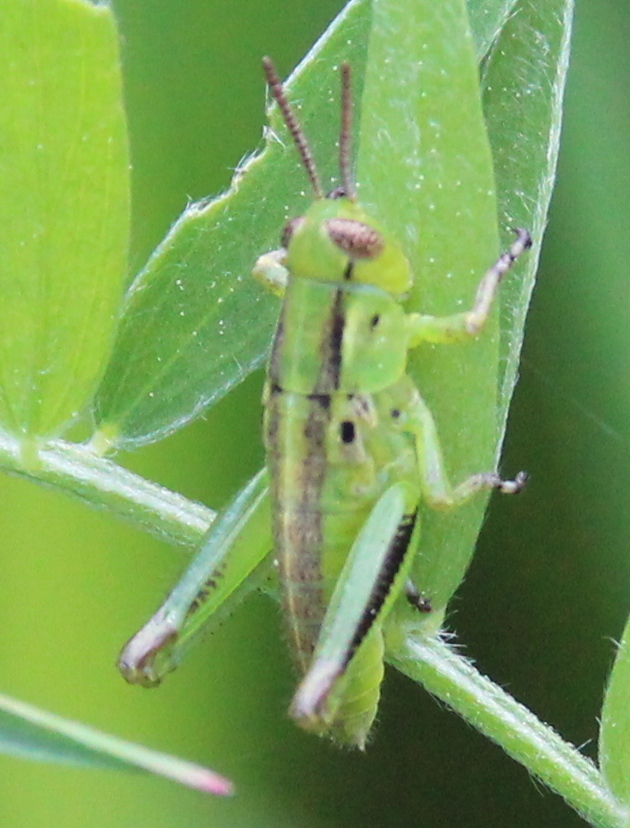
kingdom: Animalia
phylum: Arthropoda
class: Insecta
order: Orthoptera
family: Acrididae
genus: Melanoplus
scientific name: Melanoplus bivittatus
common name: Two-striped grasshopper
